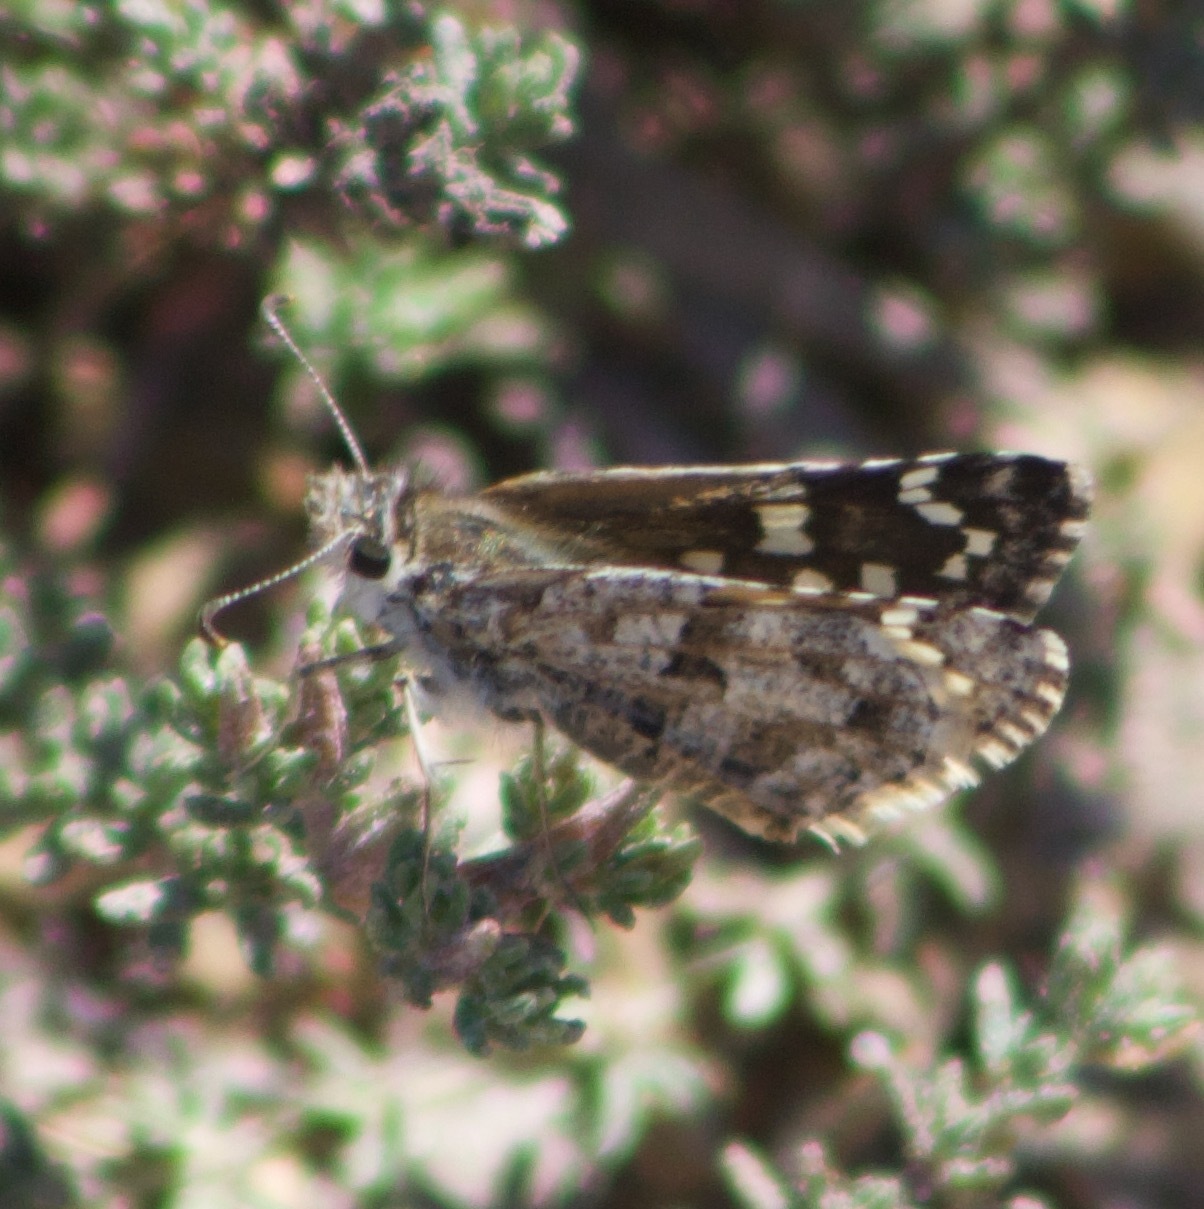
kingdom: Animalia
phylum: Arthropoda
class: Insecta
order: Lepidoptera
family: Hesperiidae
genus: Chirgus
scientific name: Chirgus fides
